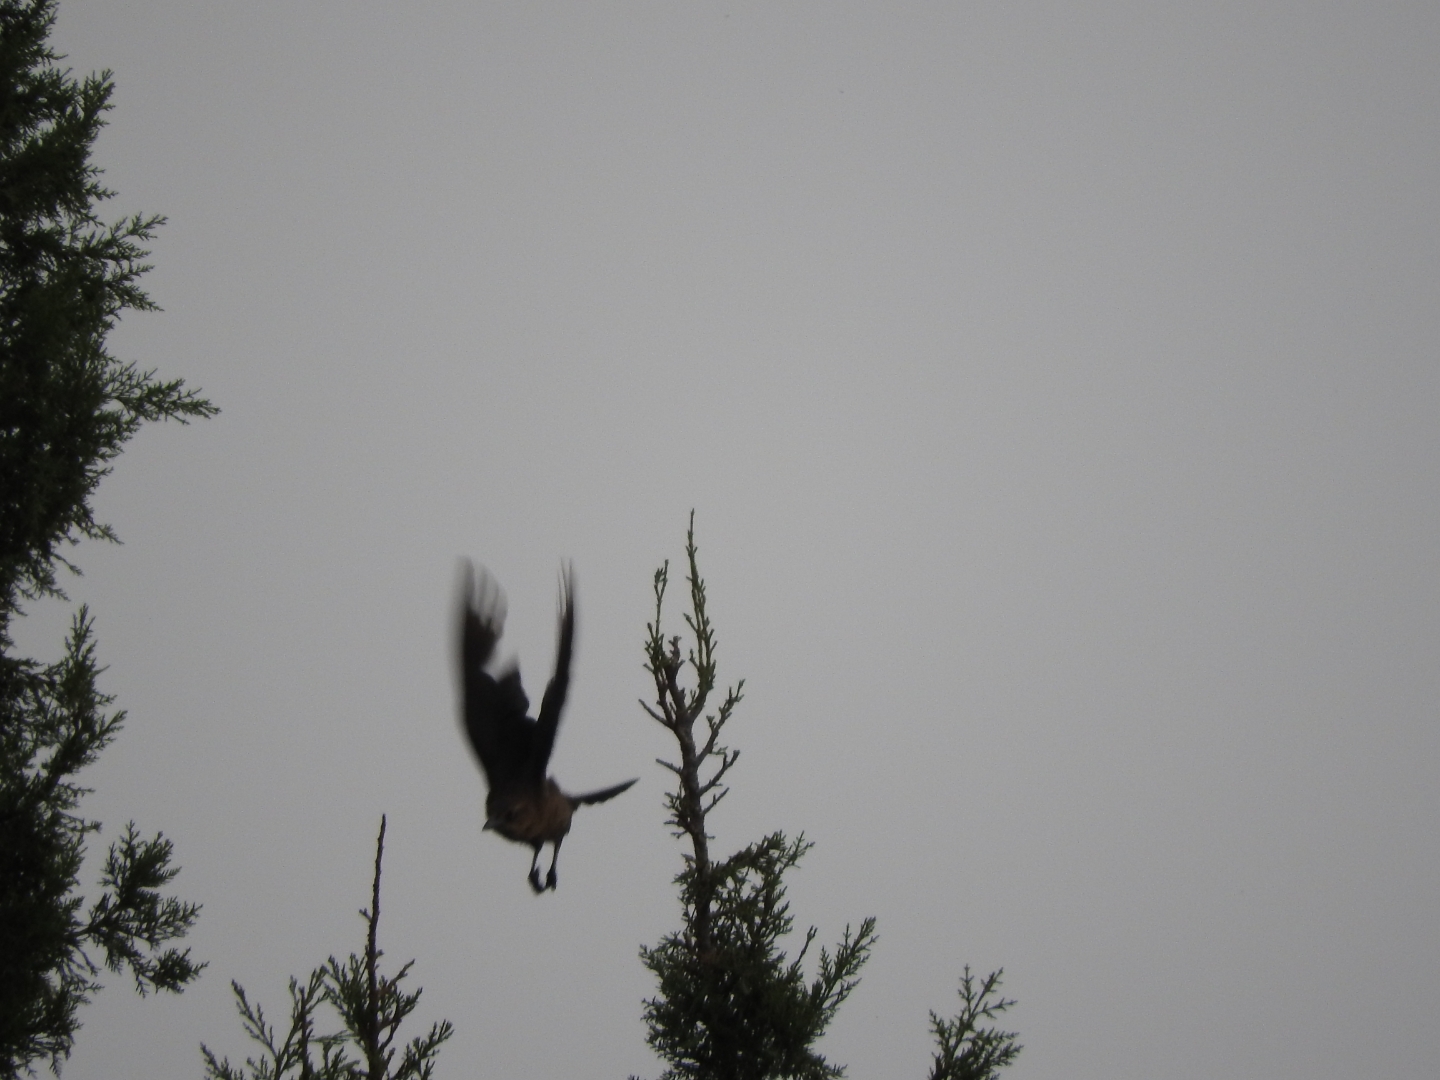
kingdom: Animalia
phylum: Chordata
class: Aves
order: Passeriformes
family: Icteridae
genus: Quiscalus
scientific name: Quiscalus mexicanus
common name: Great-tailed grackle
